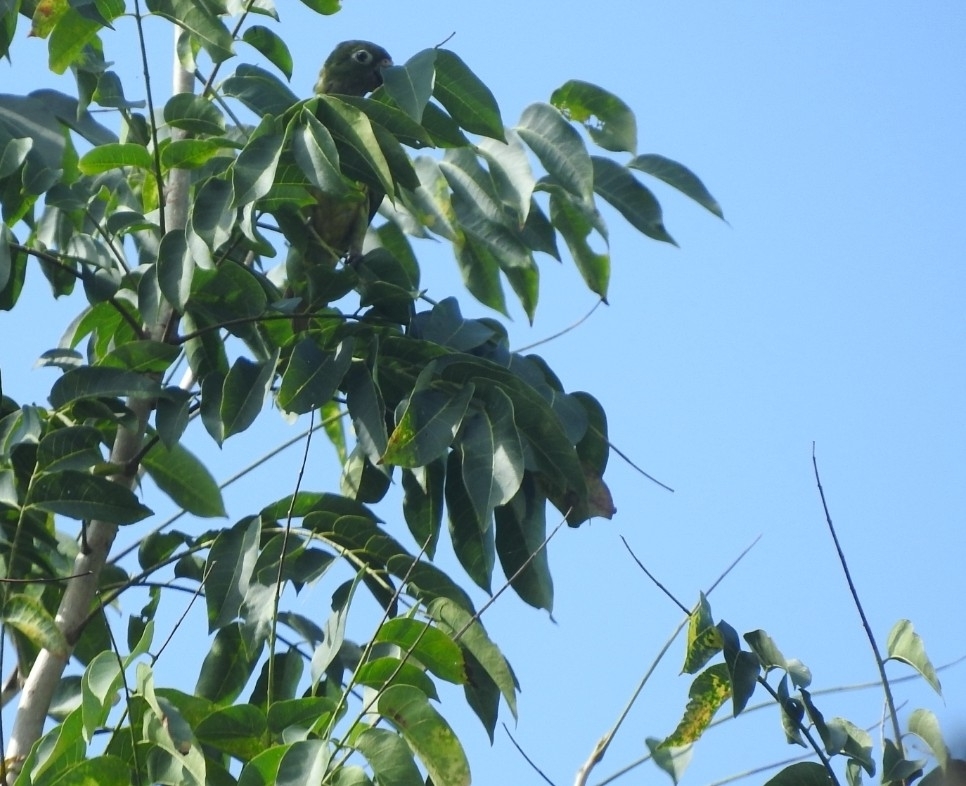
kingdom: Animalia
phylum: Chordata
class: Aves
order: Psittaciformes
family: Psittacidae
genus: Aratinga
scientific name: Aratinga nana
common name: Olive-throated parakeet
